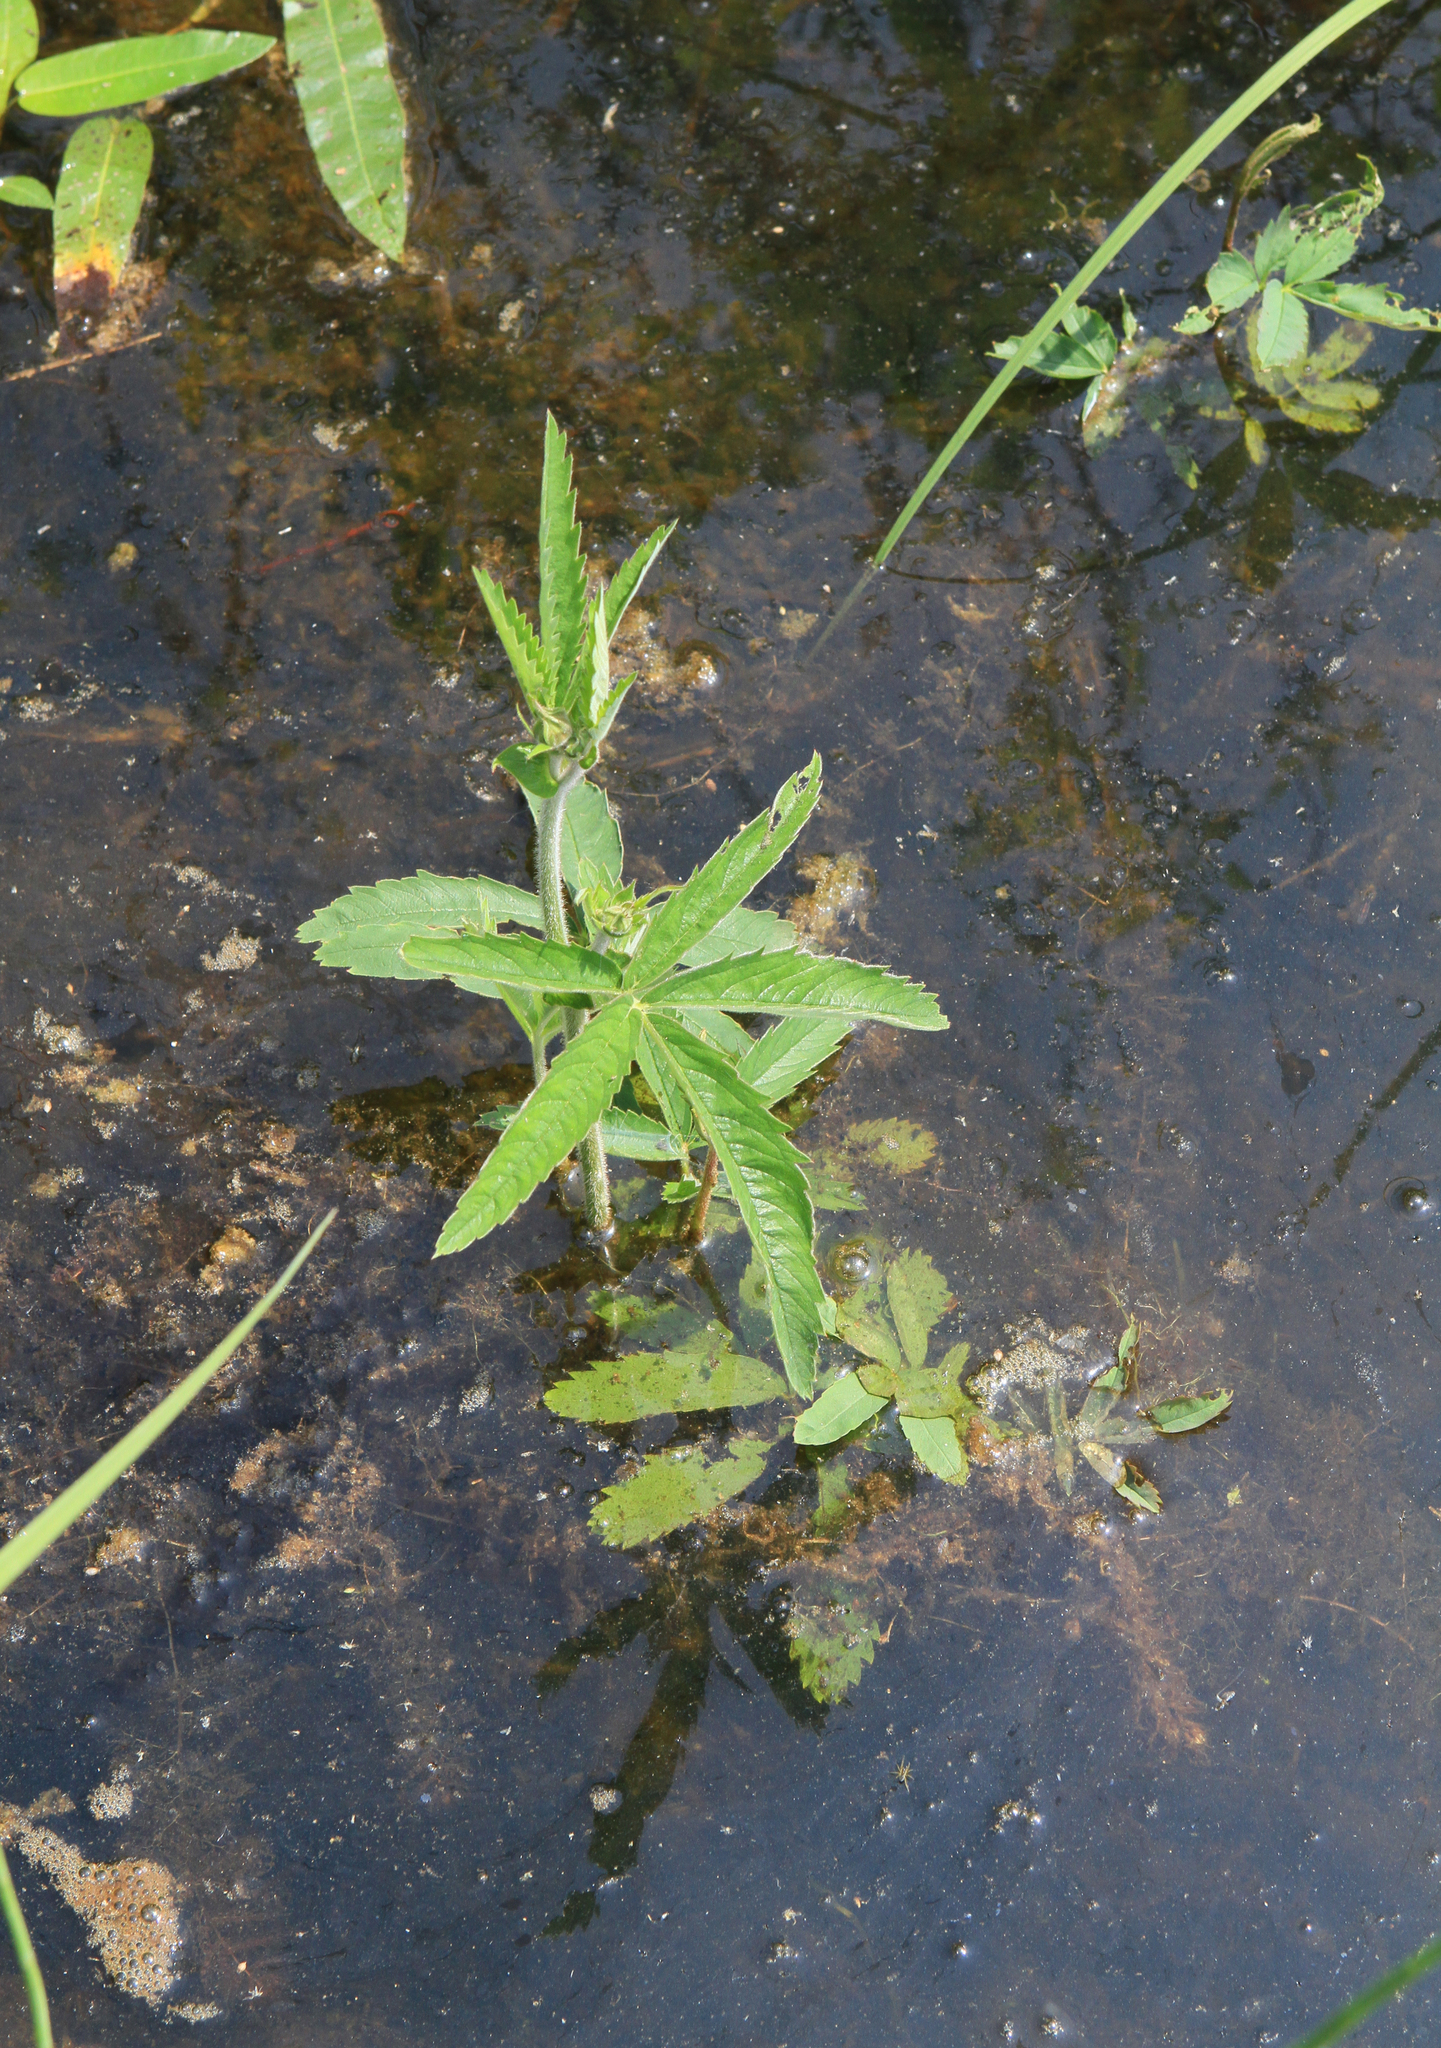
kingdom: Plantae
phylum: Tracheophyta
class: Magnoliopsida
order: Rosales
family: Rosaceae
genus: Comarum
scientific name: Comarum palustre
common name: Marsh cinquefoil
